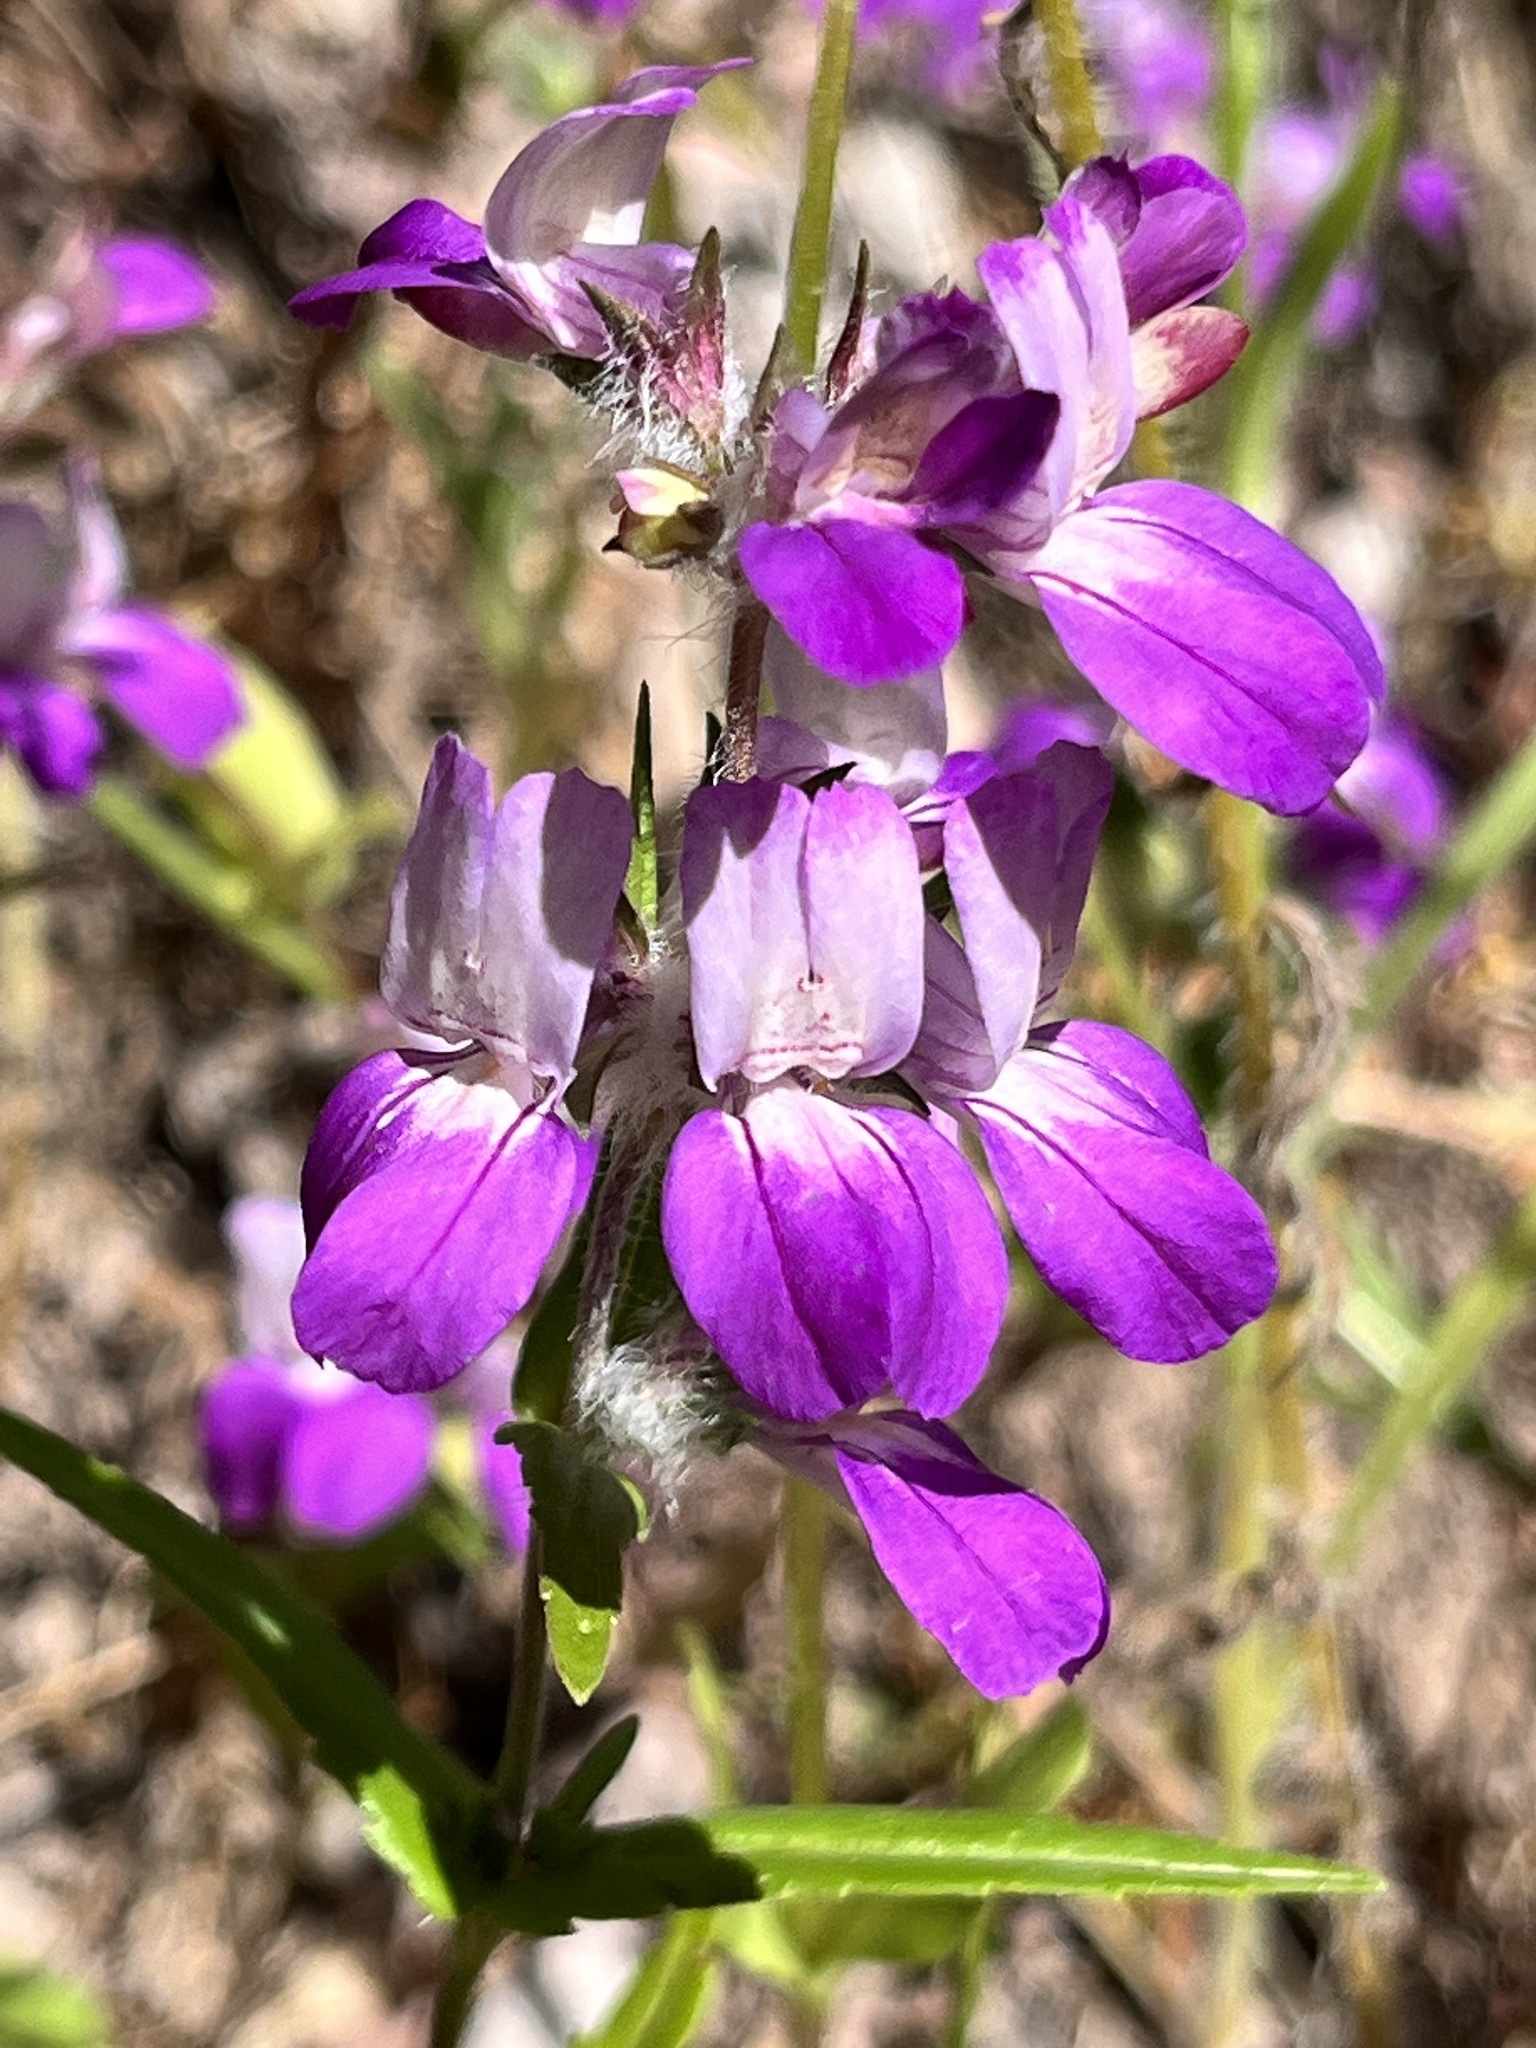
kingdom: Plantae
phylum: Tracheophyta
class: Magnoliopsida
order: Lamiales
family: Plantaginaceae
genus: Collinsia
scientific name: Collinsia heterophylla
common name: Chinese-houses
